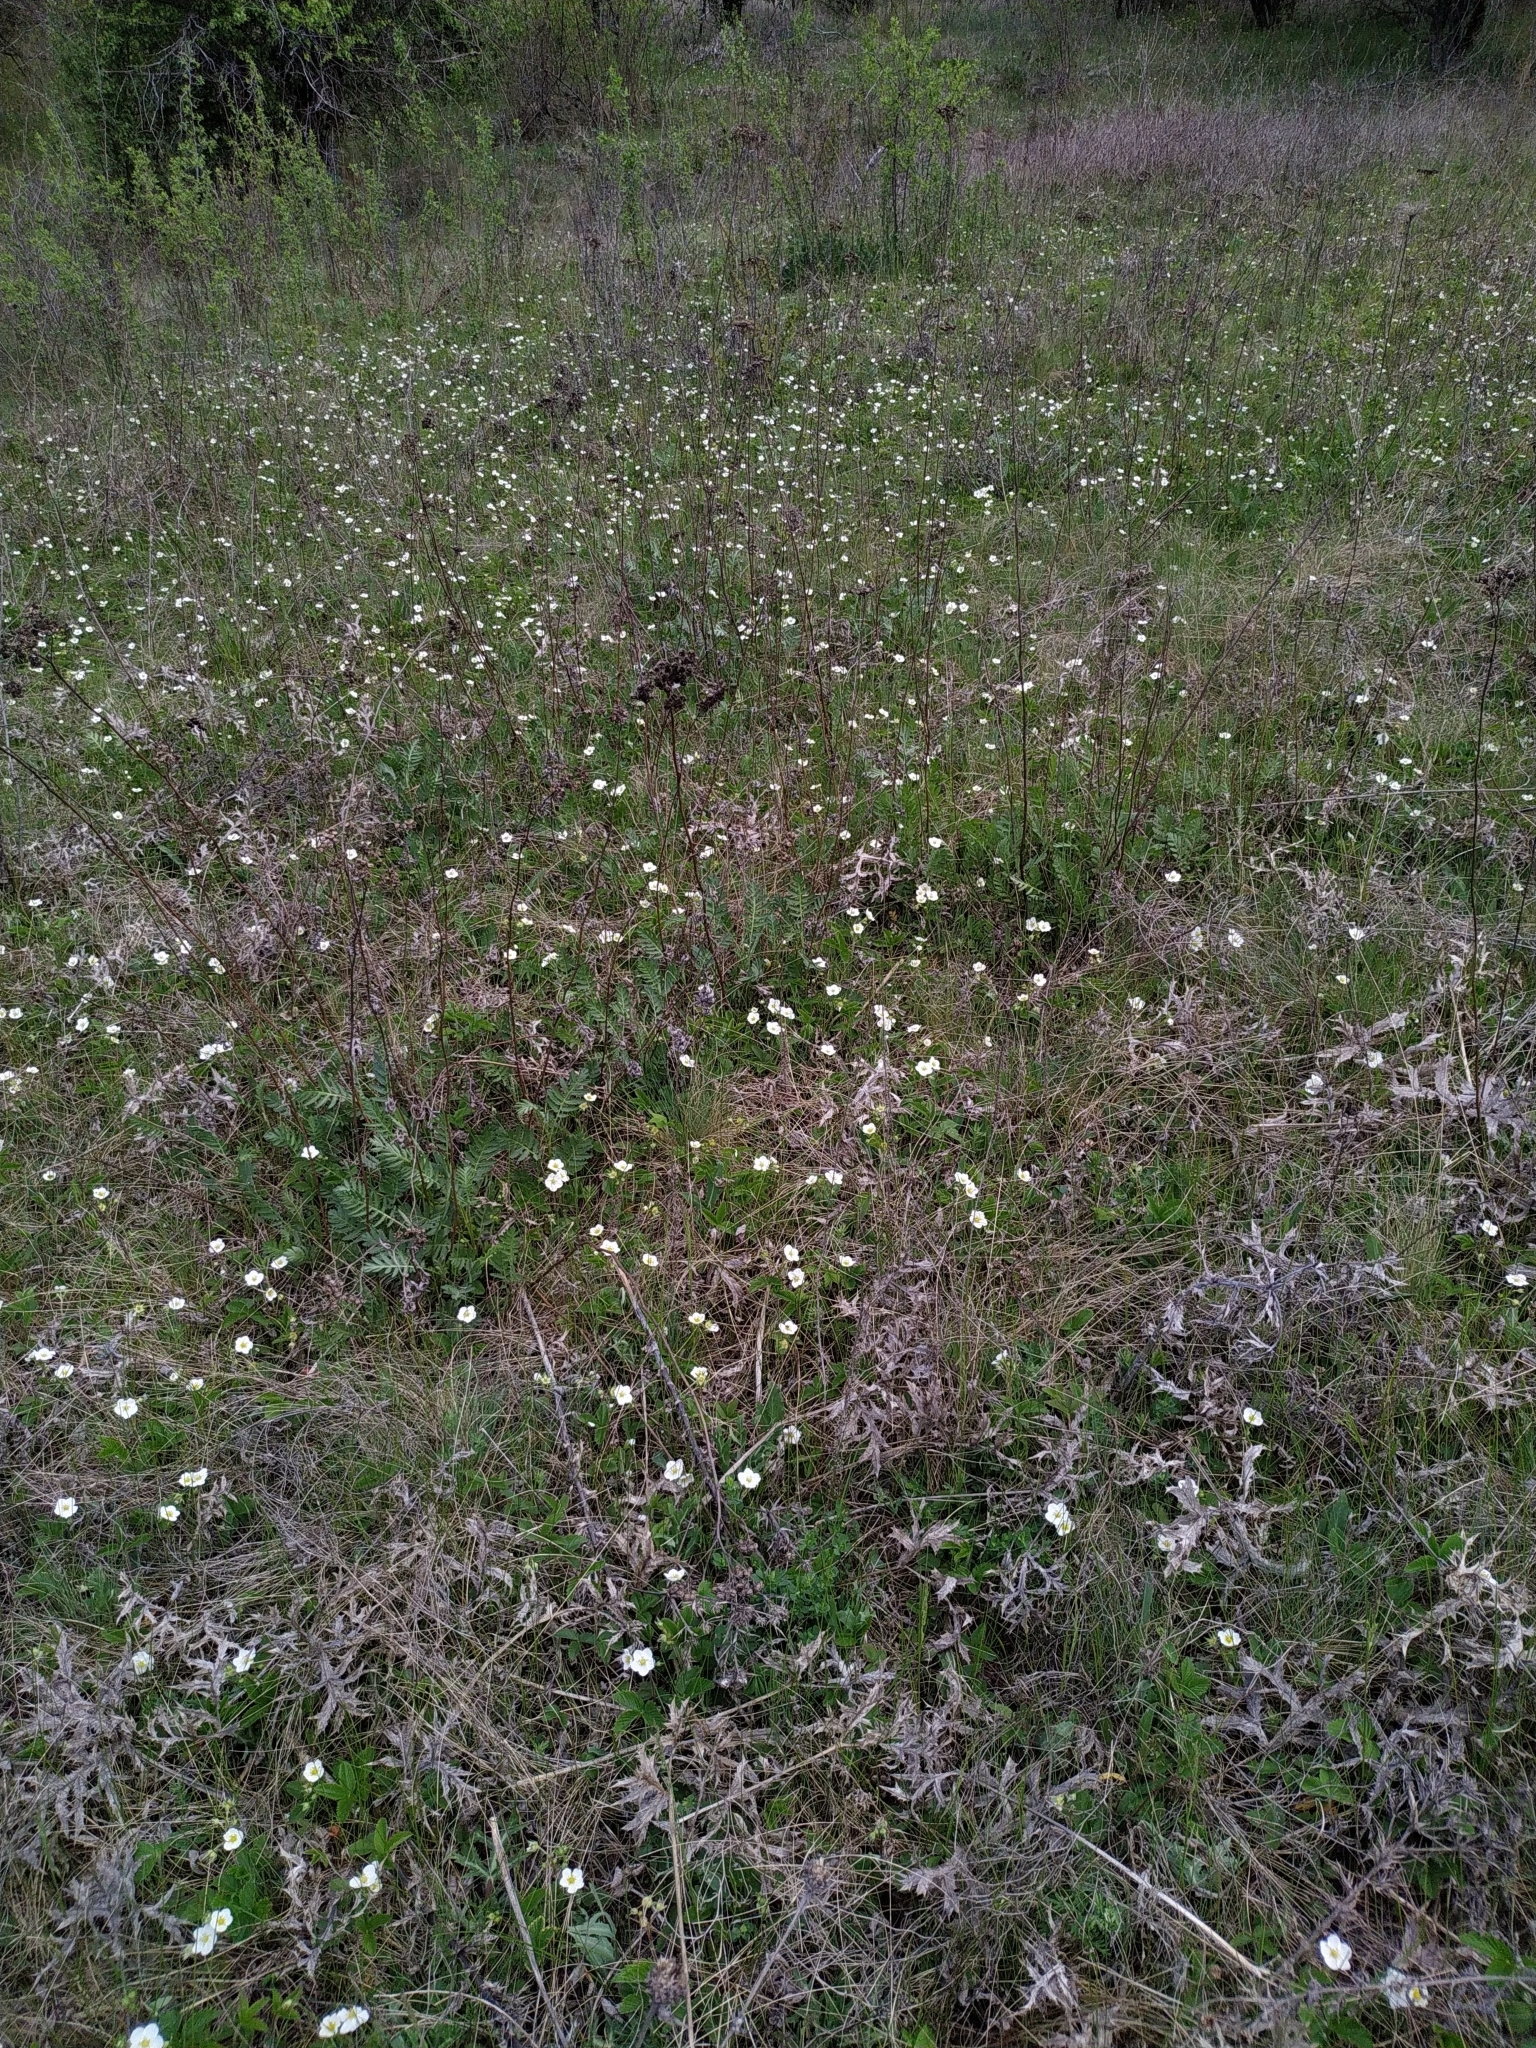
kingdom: Plantae
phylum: Tracheophyta
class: Magnoliopsida
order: Rosales
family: Rosaceae
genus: Fragaria
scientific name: Fragaria viridis
